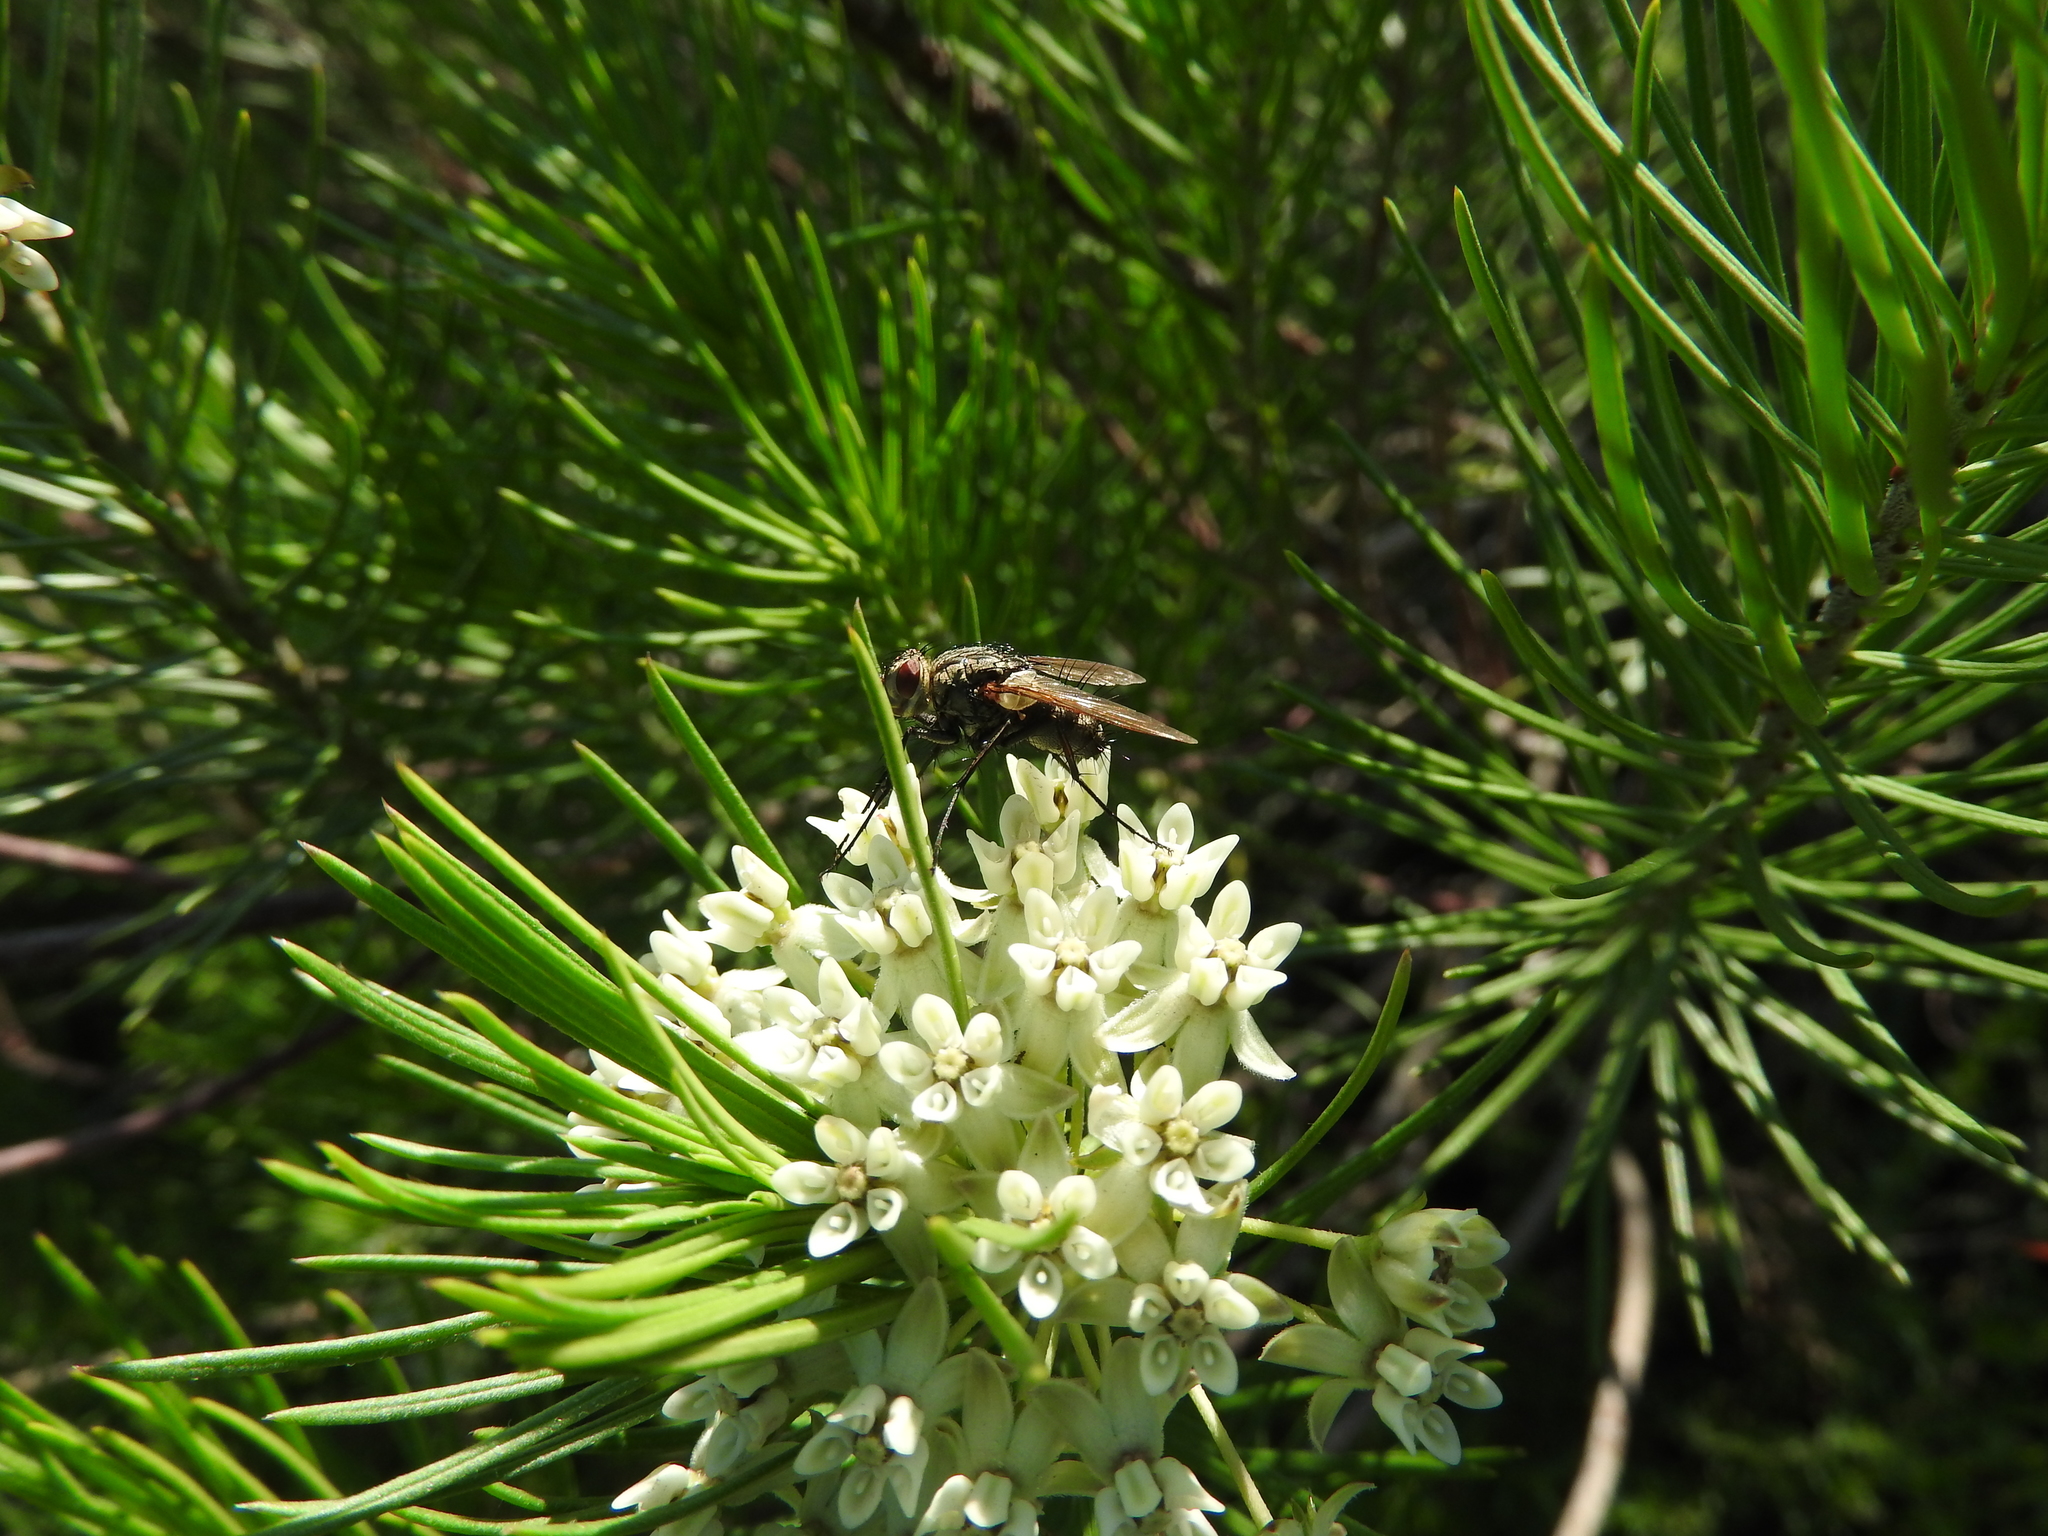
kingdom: Plantae
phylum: Tracheophyta
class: Magnoliopsida
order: Gentianales
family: Apocynaceae
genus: Asclepias
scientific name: Asclepias linaria
